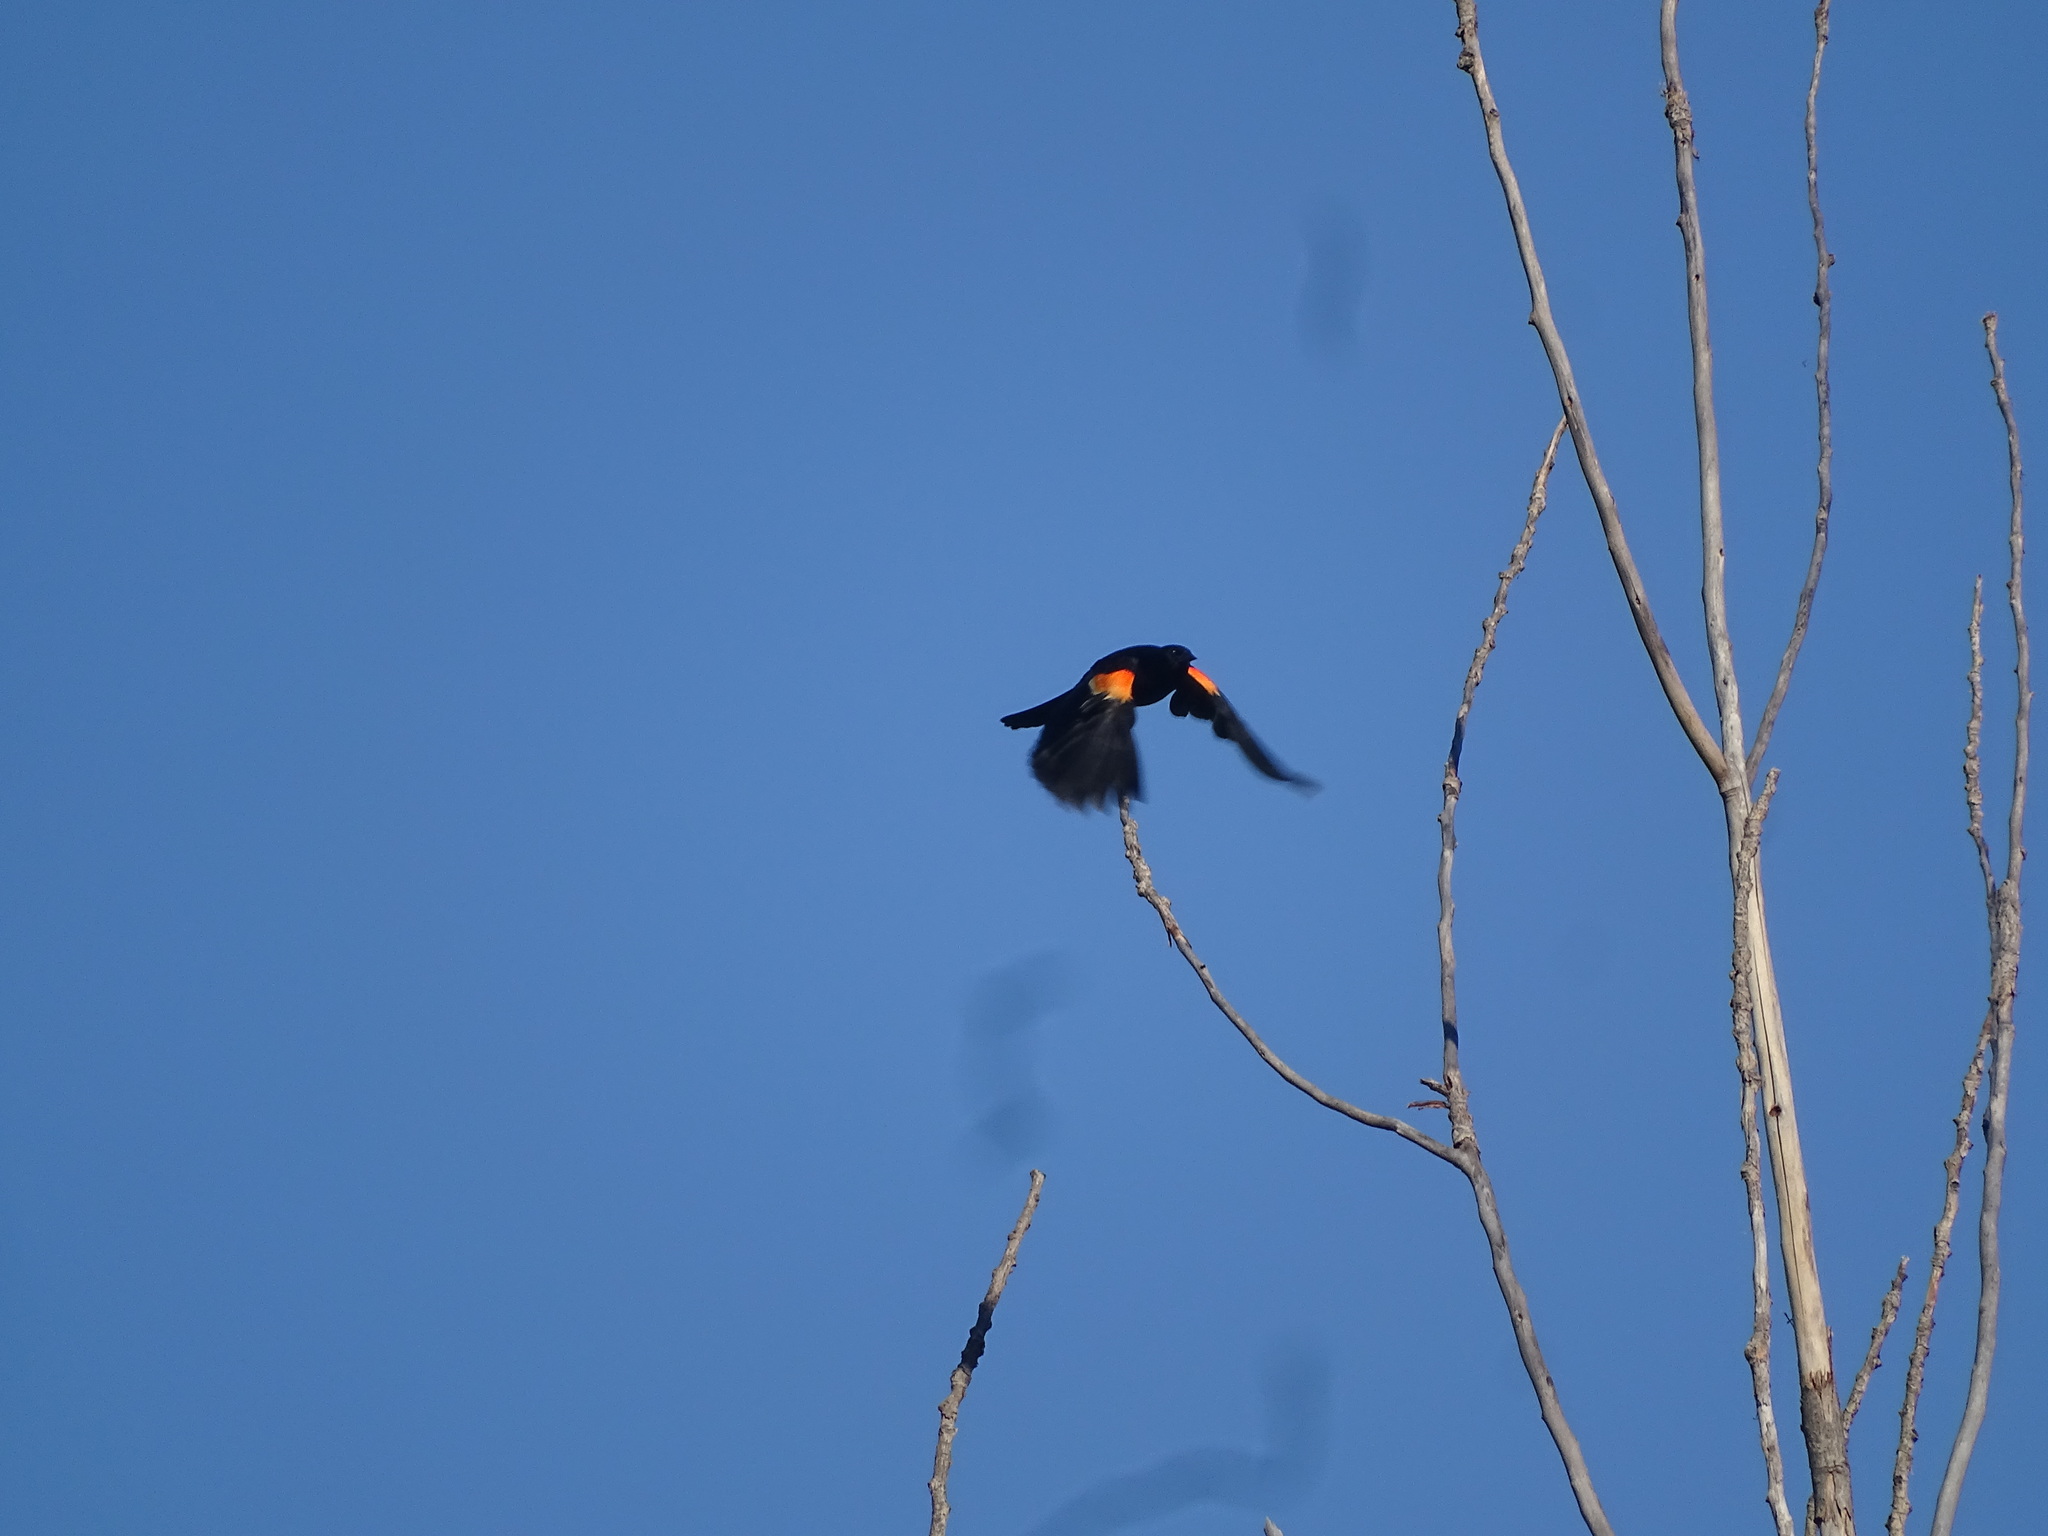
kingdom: Animalia
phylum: Chordata
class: Aves
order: Passeriformes
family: Icteridae
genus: Agelaius
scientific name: Agelaius phoeniceus
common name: Red-winged blackbird
